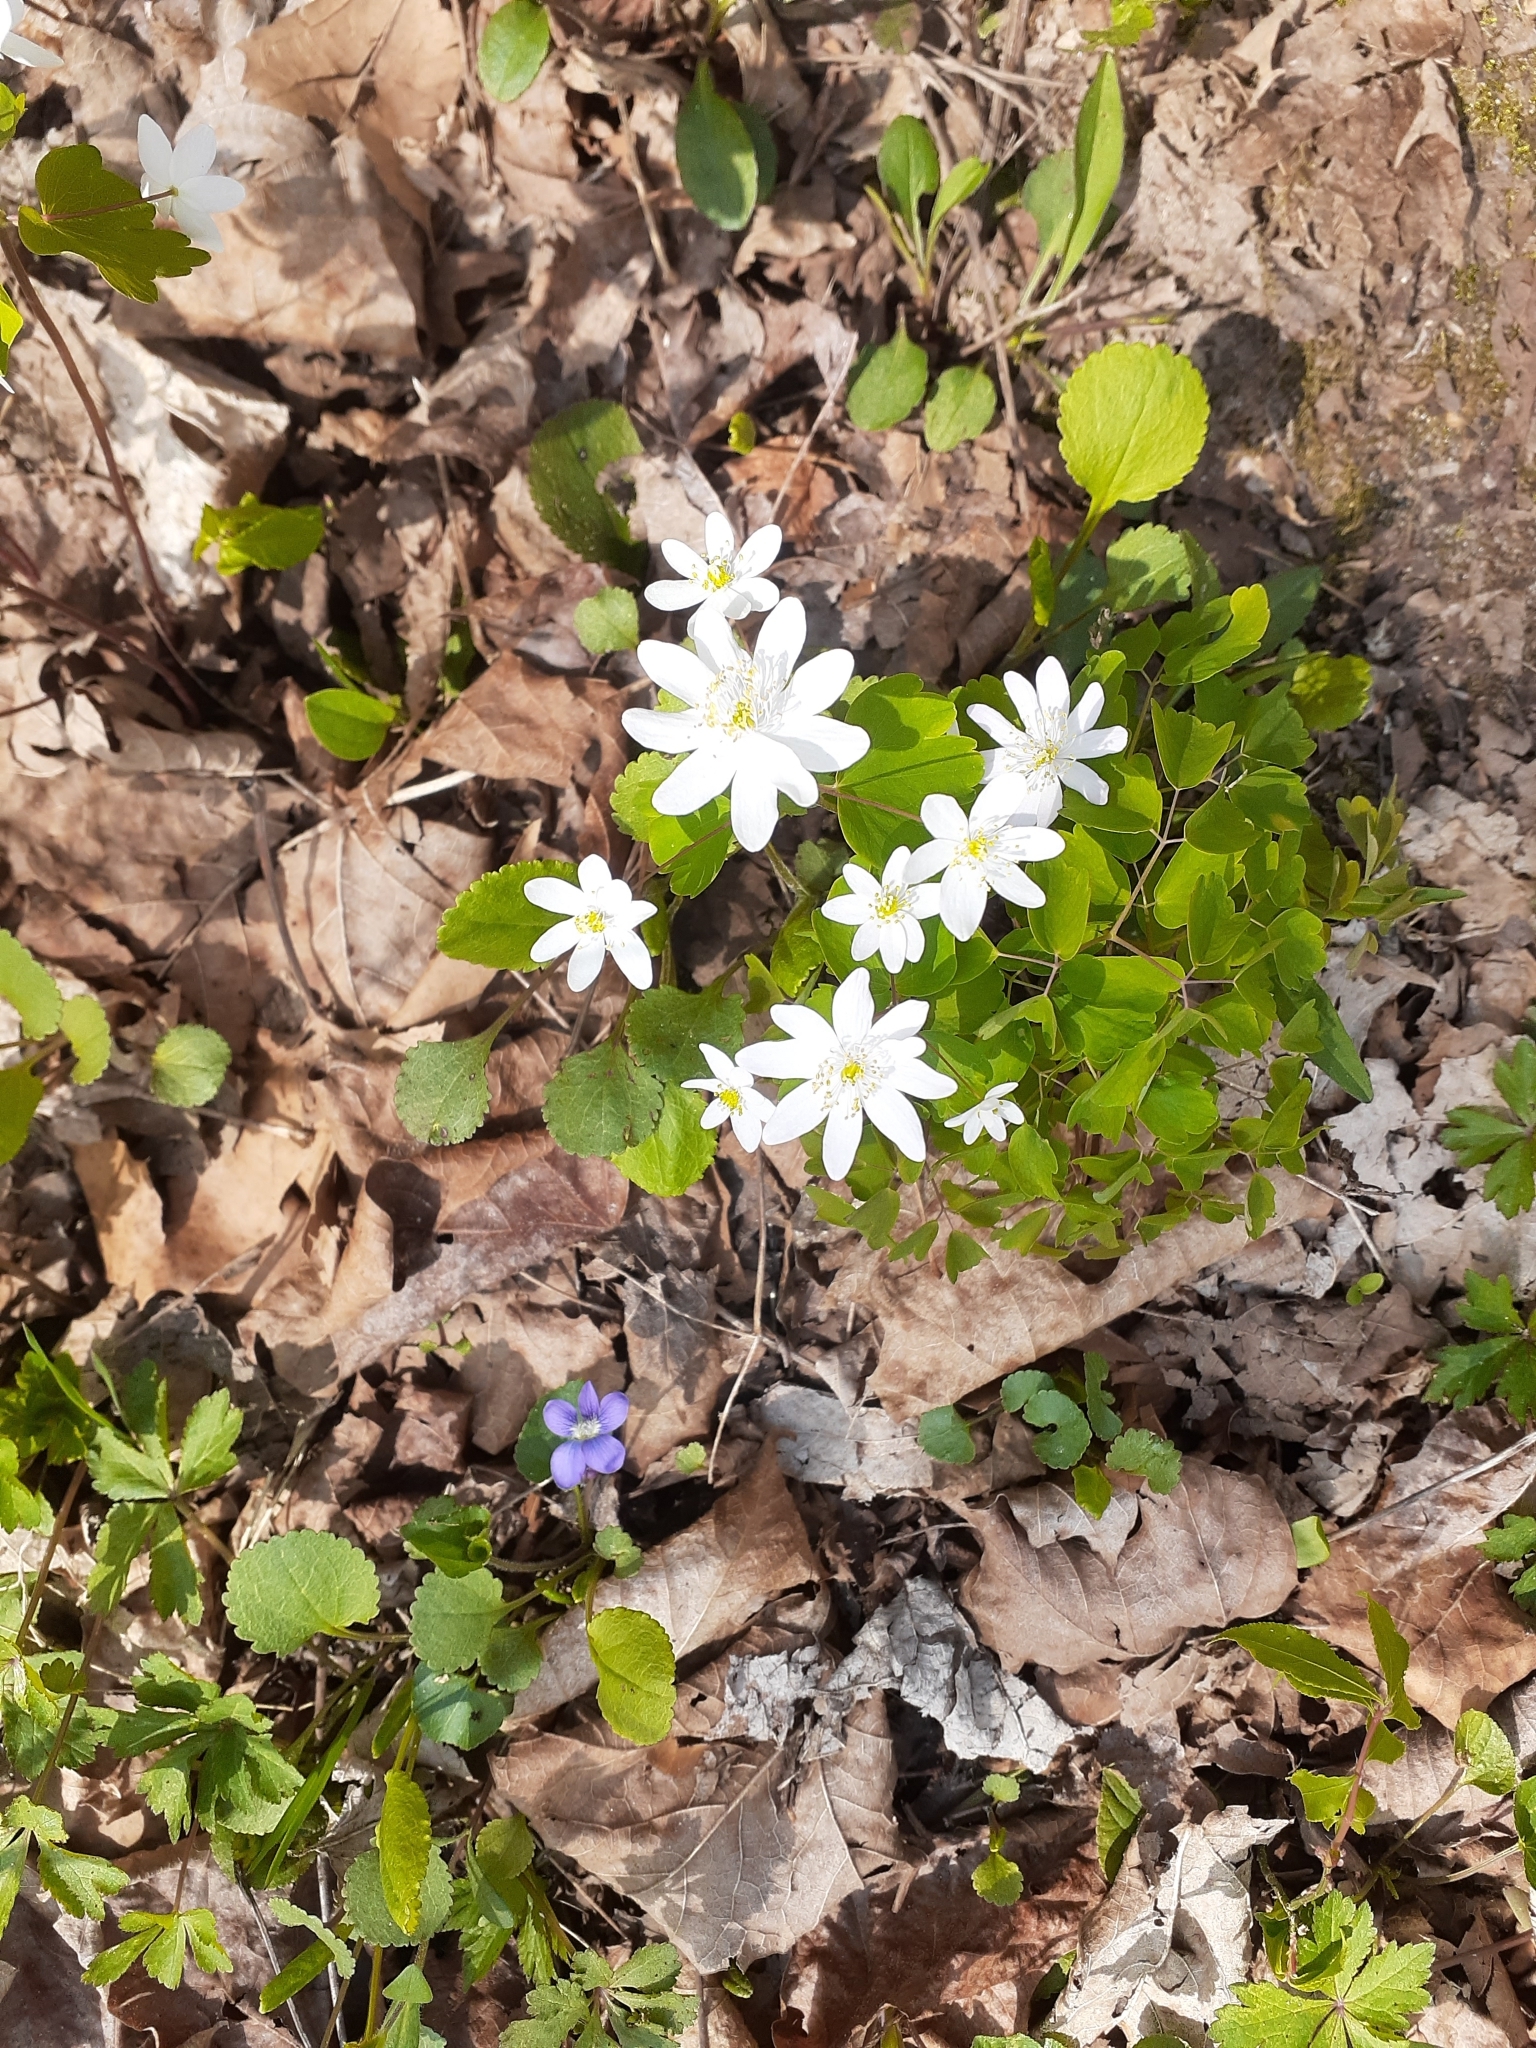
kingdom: Plantae
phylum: Tracheophyta
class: Magnoliopsida
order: Ranunculales
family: Ranunculaceae
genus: Thalictrum
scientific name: Thalictrum thalictroides
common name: Rue-anemone
